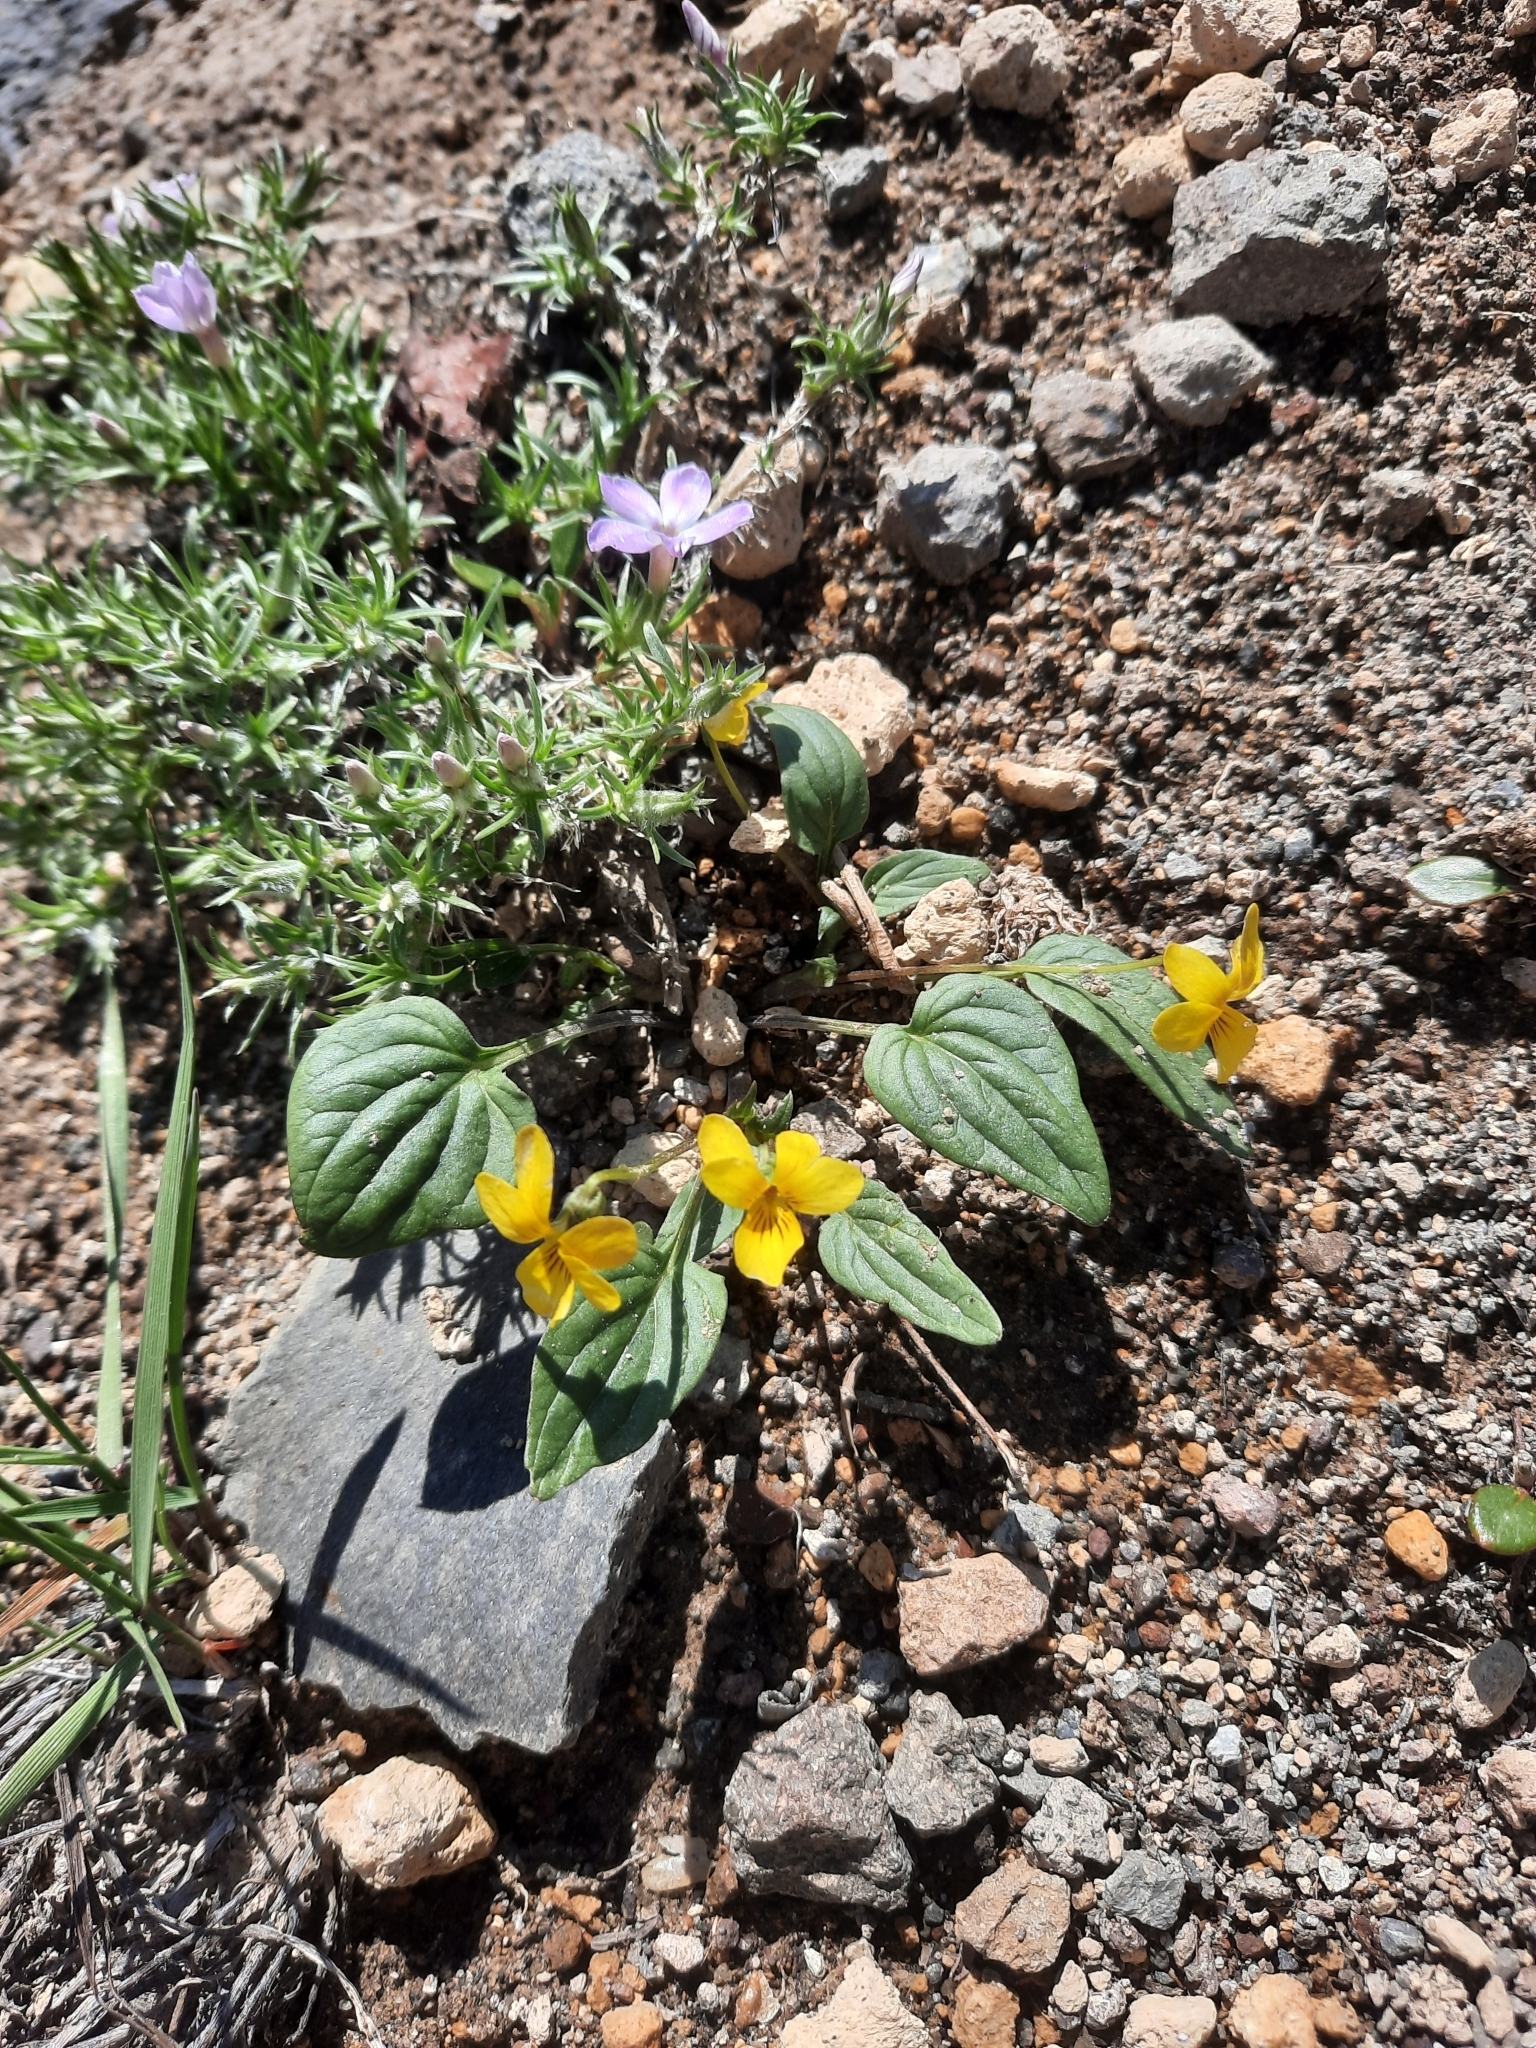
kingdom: Plantae
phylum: Tracheophyta
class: Magnoliopsida
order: Malpighiales
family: Violaceae
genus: Viola
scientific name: Viola purpurea
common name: Pine violet
